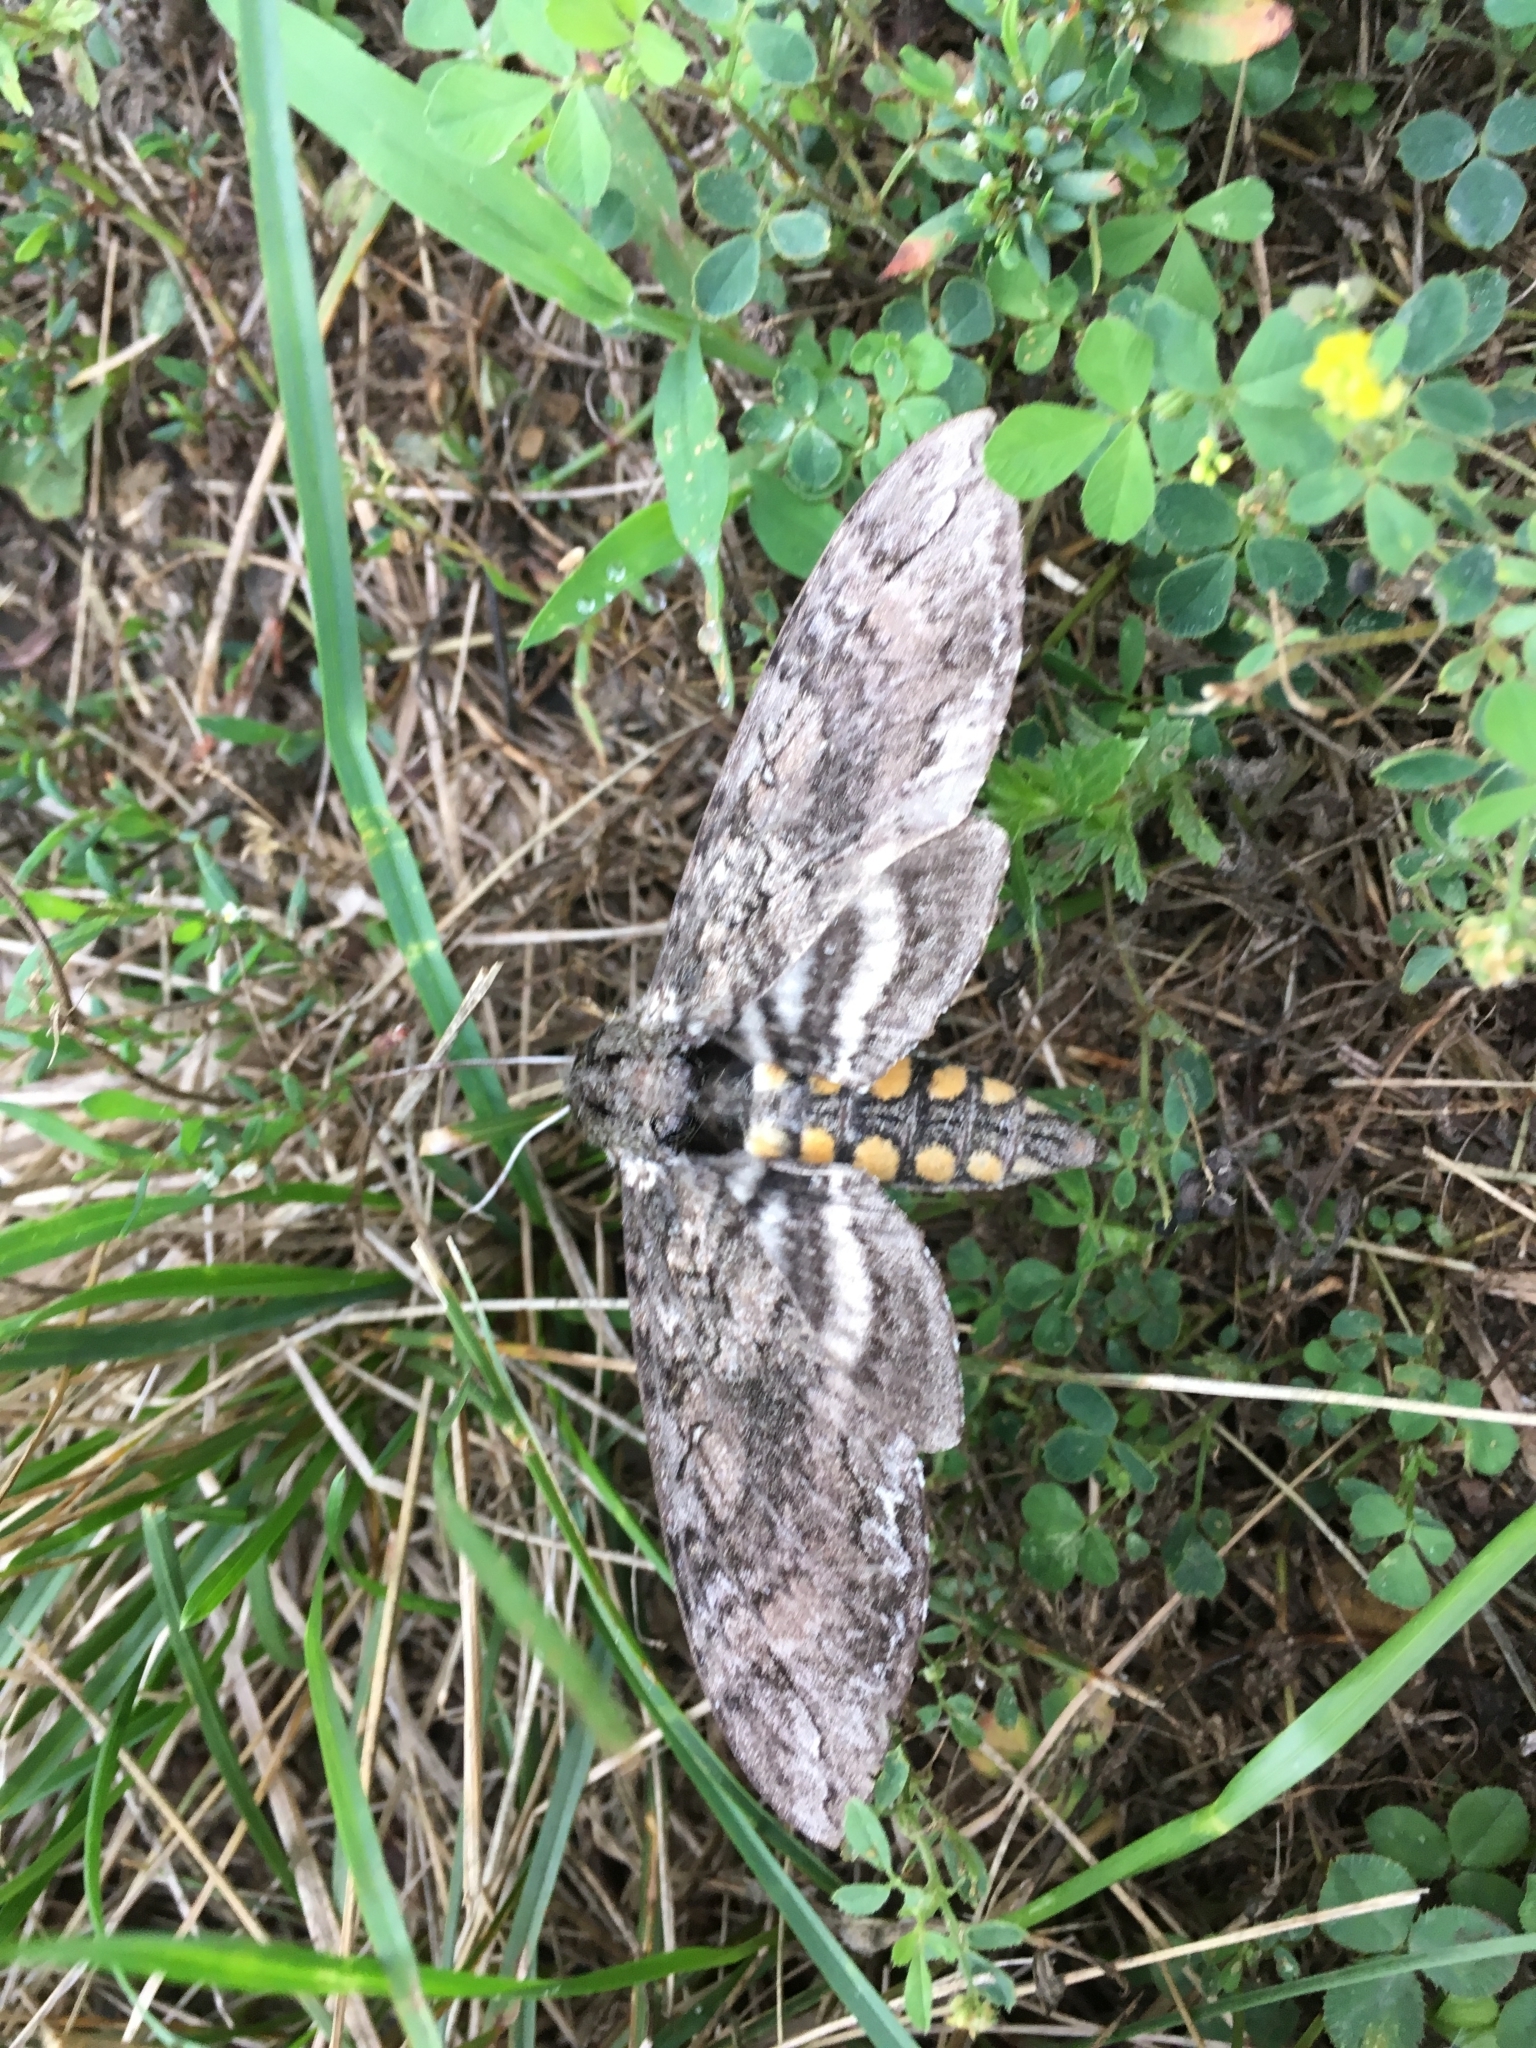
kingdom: Animalia
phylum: Arthropoda
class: Insecta
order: Lepidoptera
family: Sphingidae
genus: Manduca
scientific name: Manduca sexta
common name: Carolina sphinx
